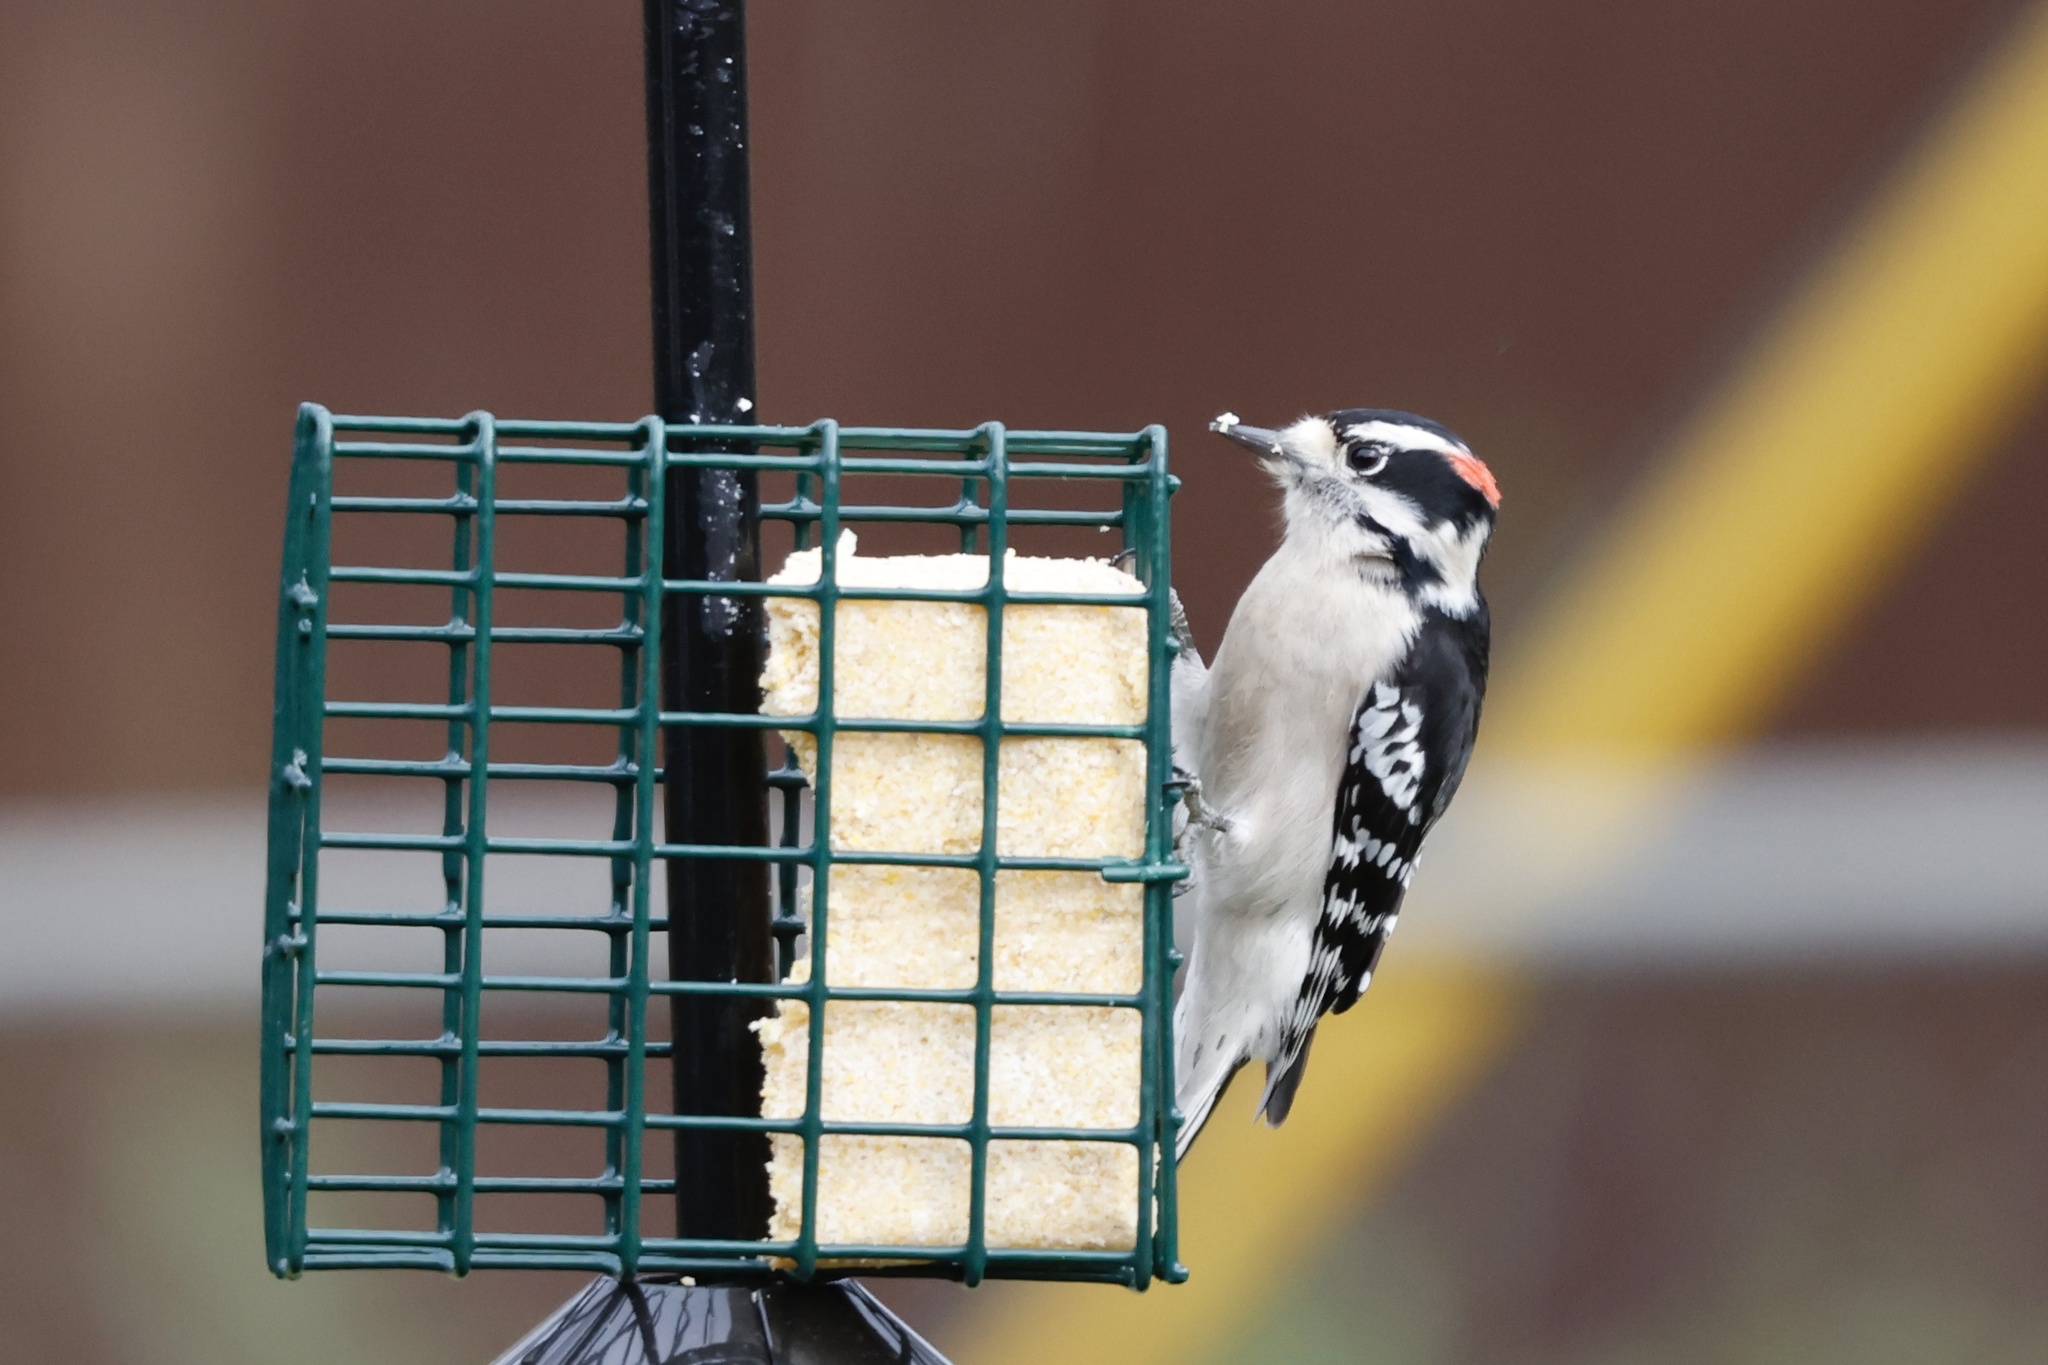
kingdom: Animalia
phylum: Chordata
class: Aves
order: Piciformes
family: Picidae
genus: Dryobates
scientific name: Dryobates pubescens
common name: Downy woodpecker
